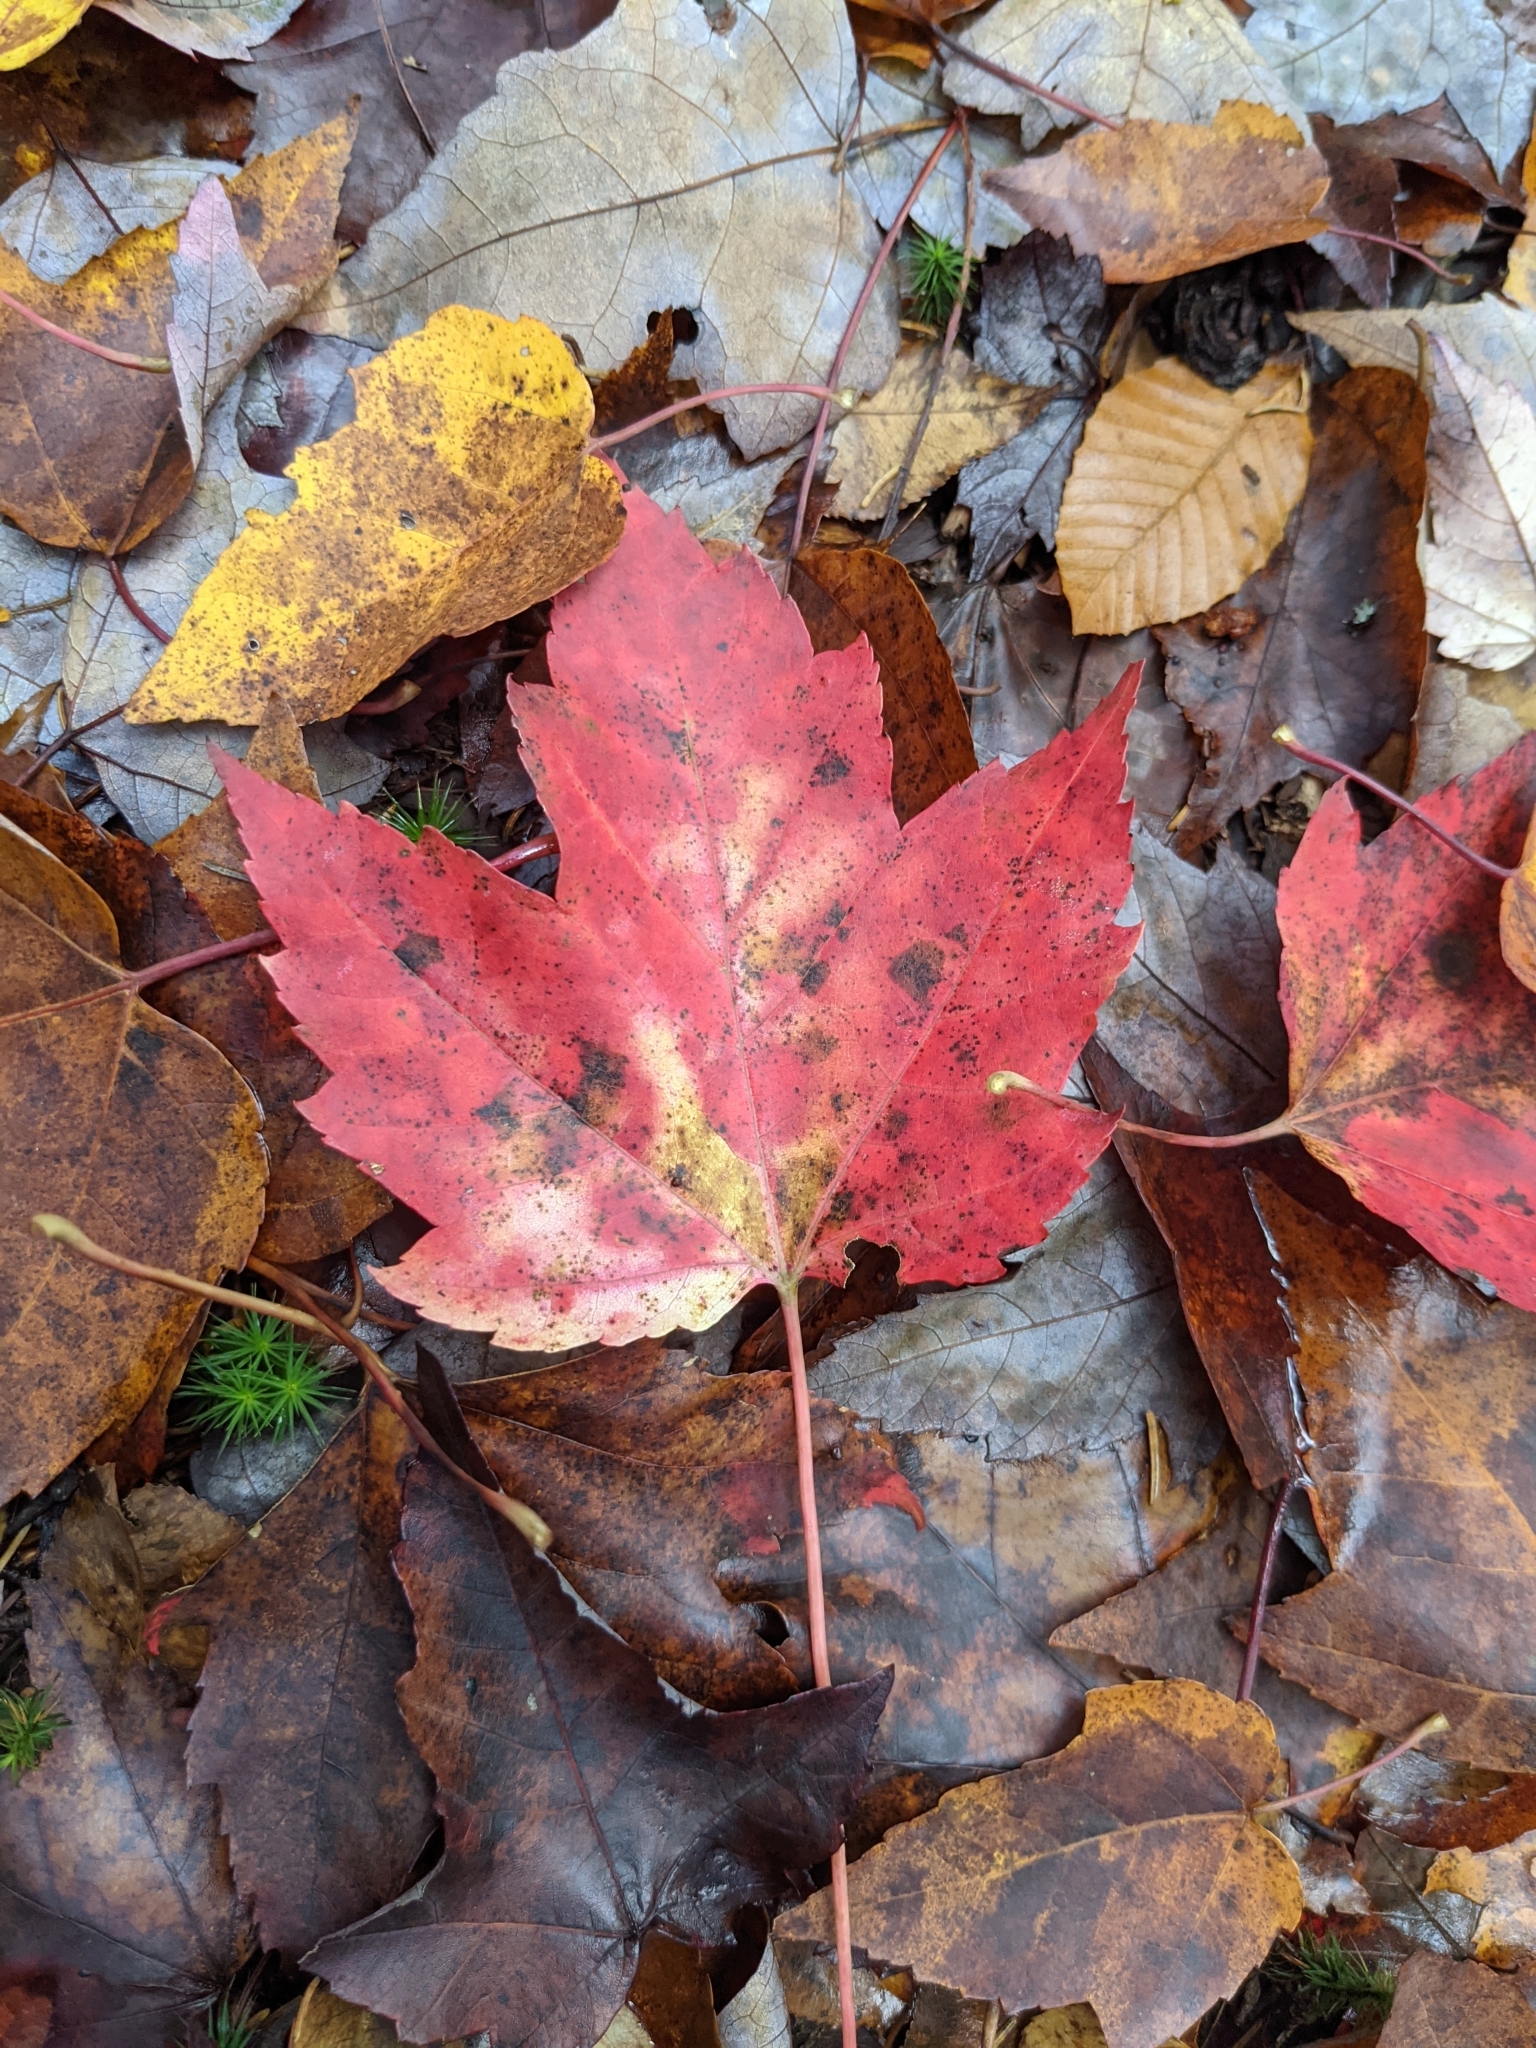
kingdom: Plantae
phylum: Tracheophyta
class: Magnoliopsida
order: Sapindales
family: Sapindaceae
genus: Acer
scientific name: Acer rubrum
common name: Red maple
